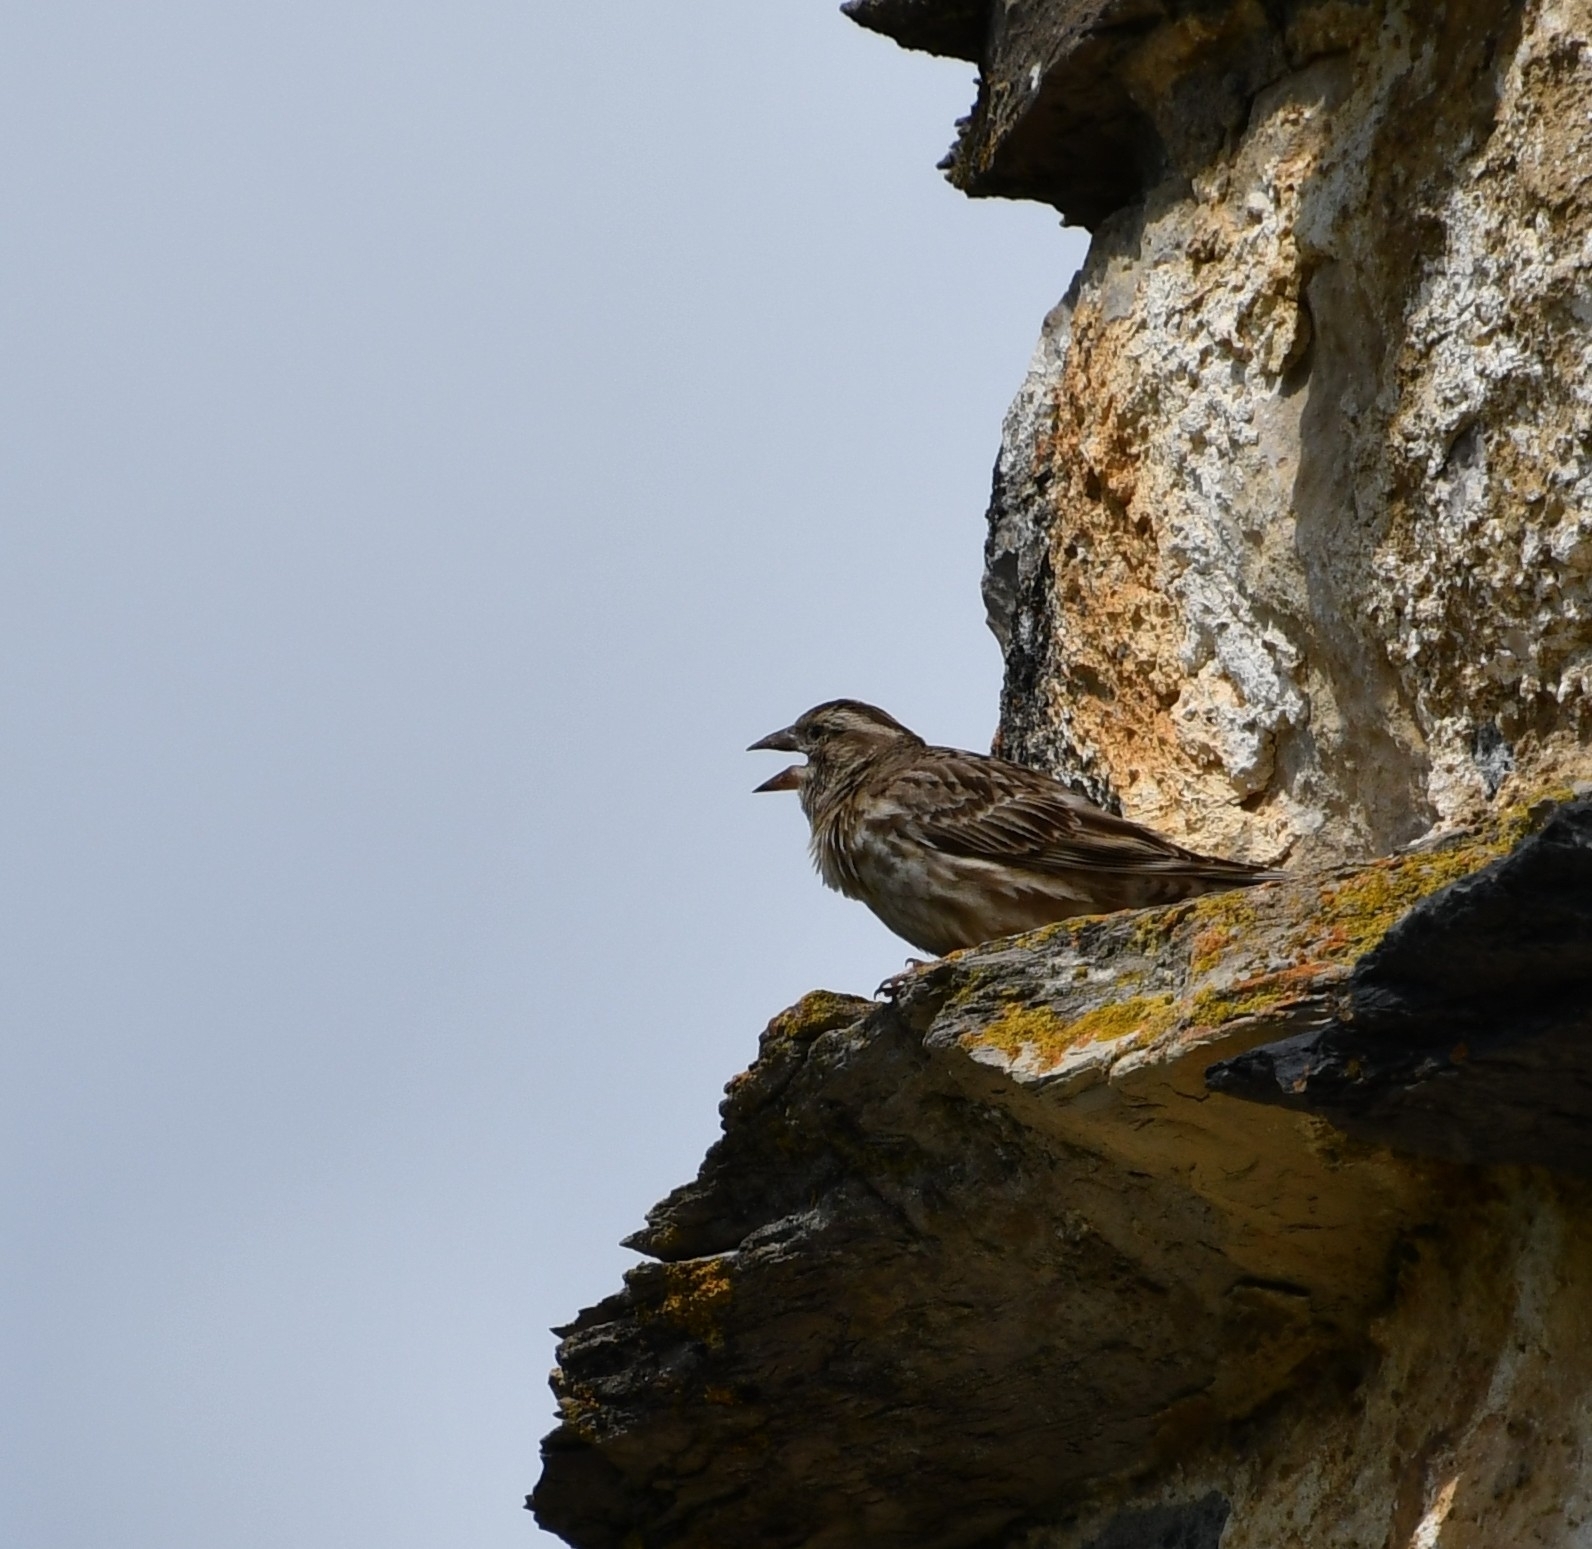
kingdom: Animalia
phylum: Chordata
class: Aves
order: Passeriformes
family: Passeridae
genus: Petronia
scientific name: Petronia petronia
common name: Rock sparrow
